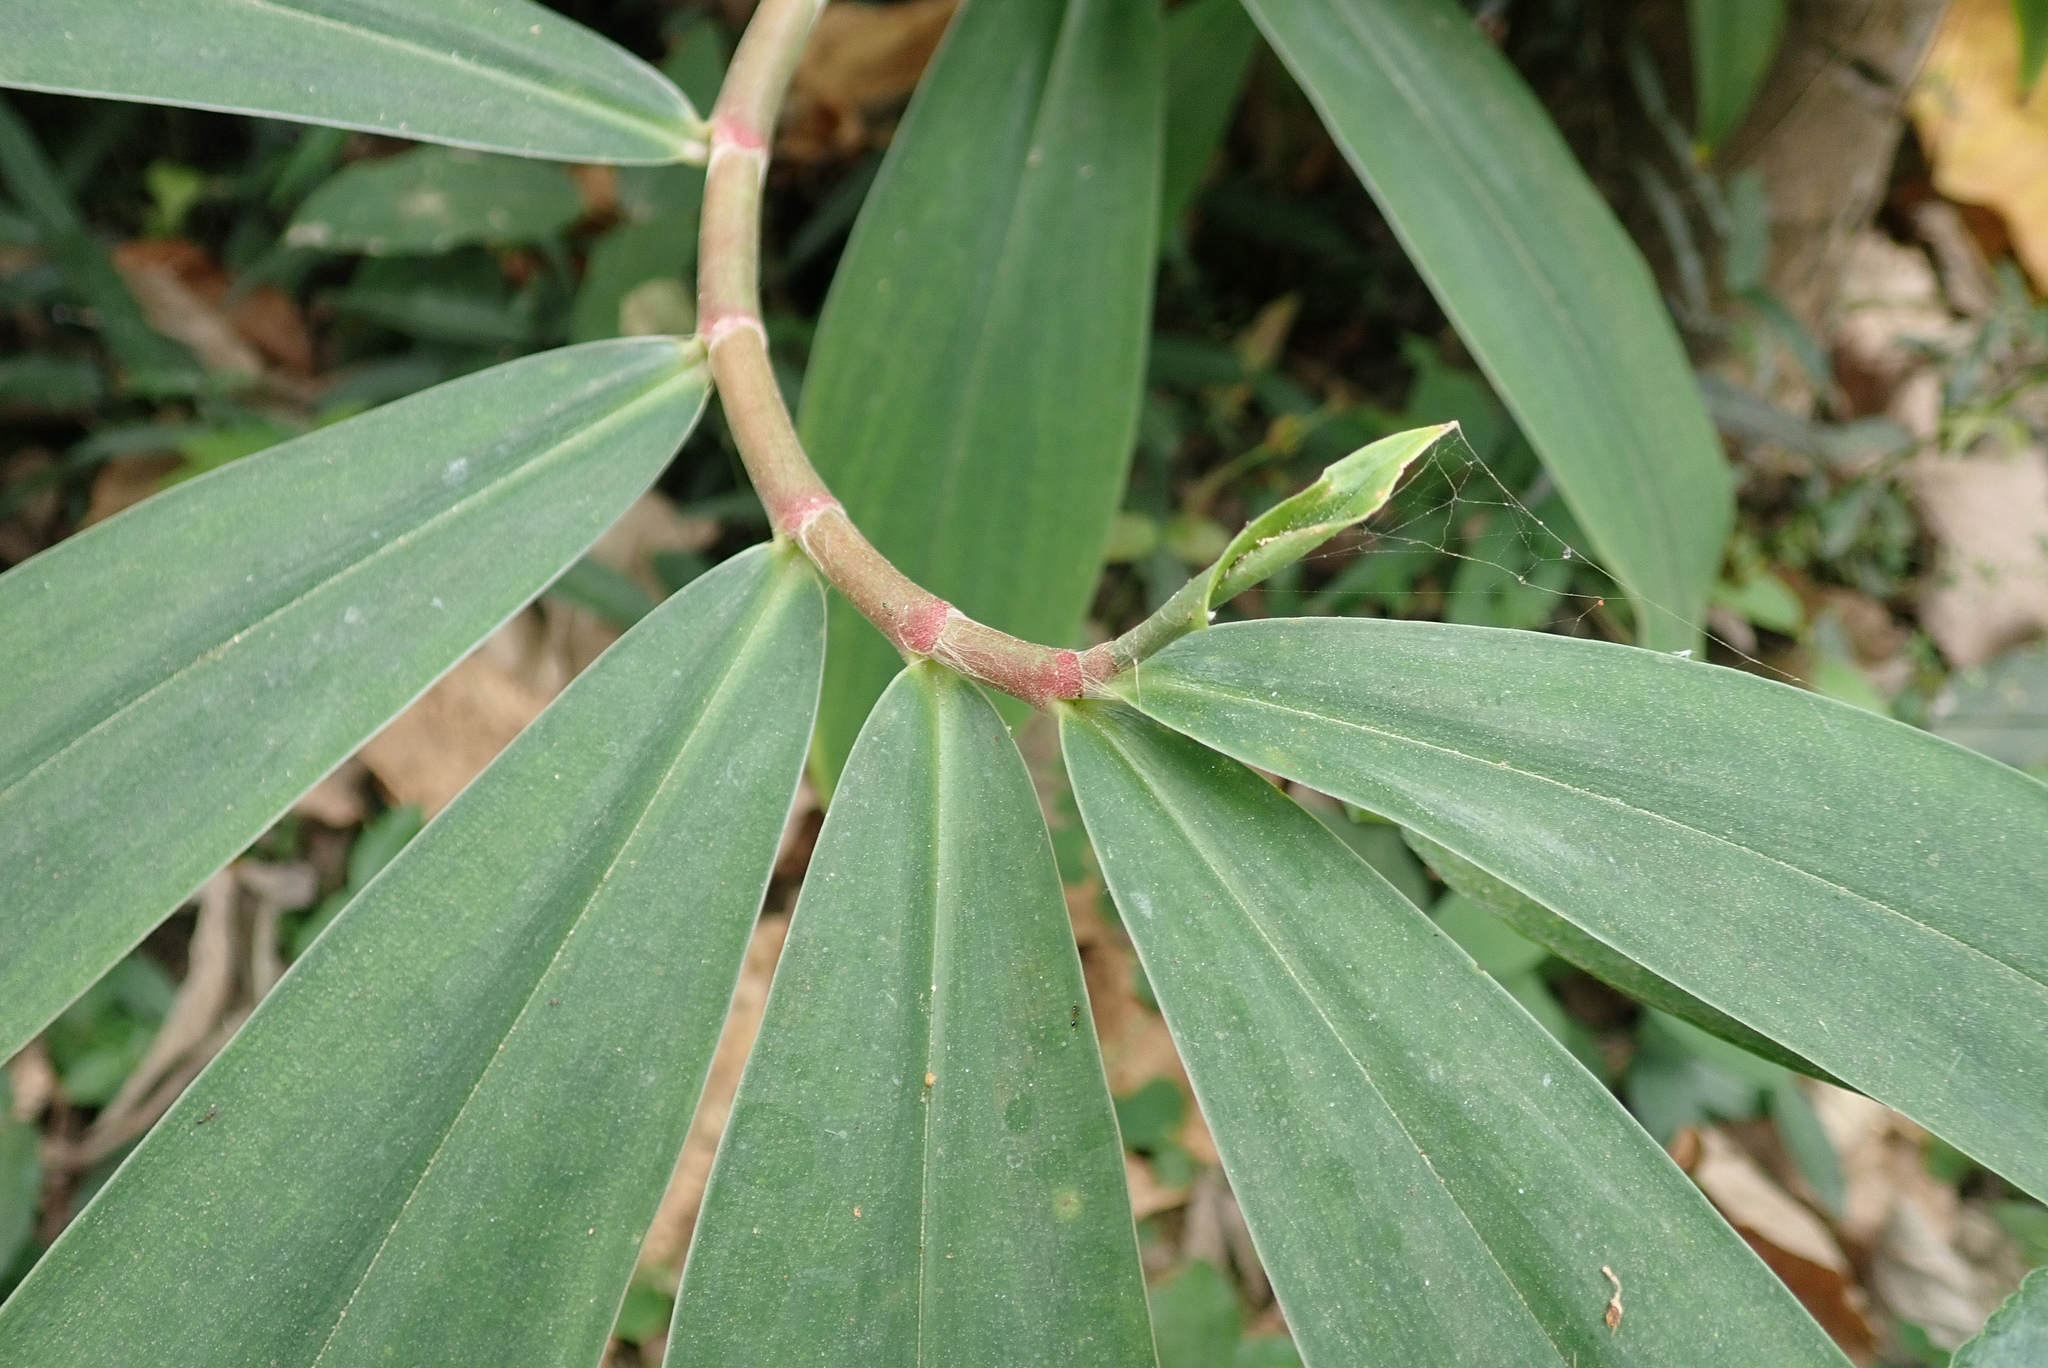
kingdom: Plantae
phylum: Tracheophyta
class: Liliopsida
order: Zingiberales
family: Costaceae
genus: Hellenia
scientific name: Hellenia speciosa
